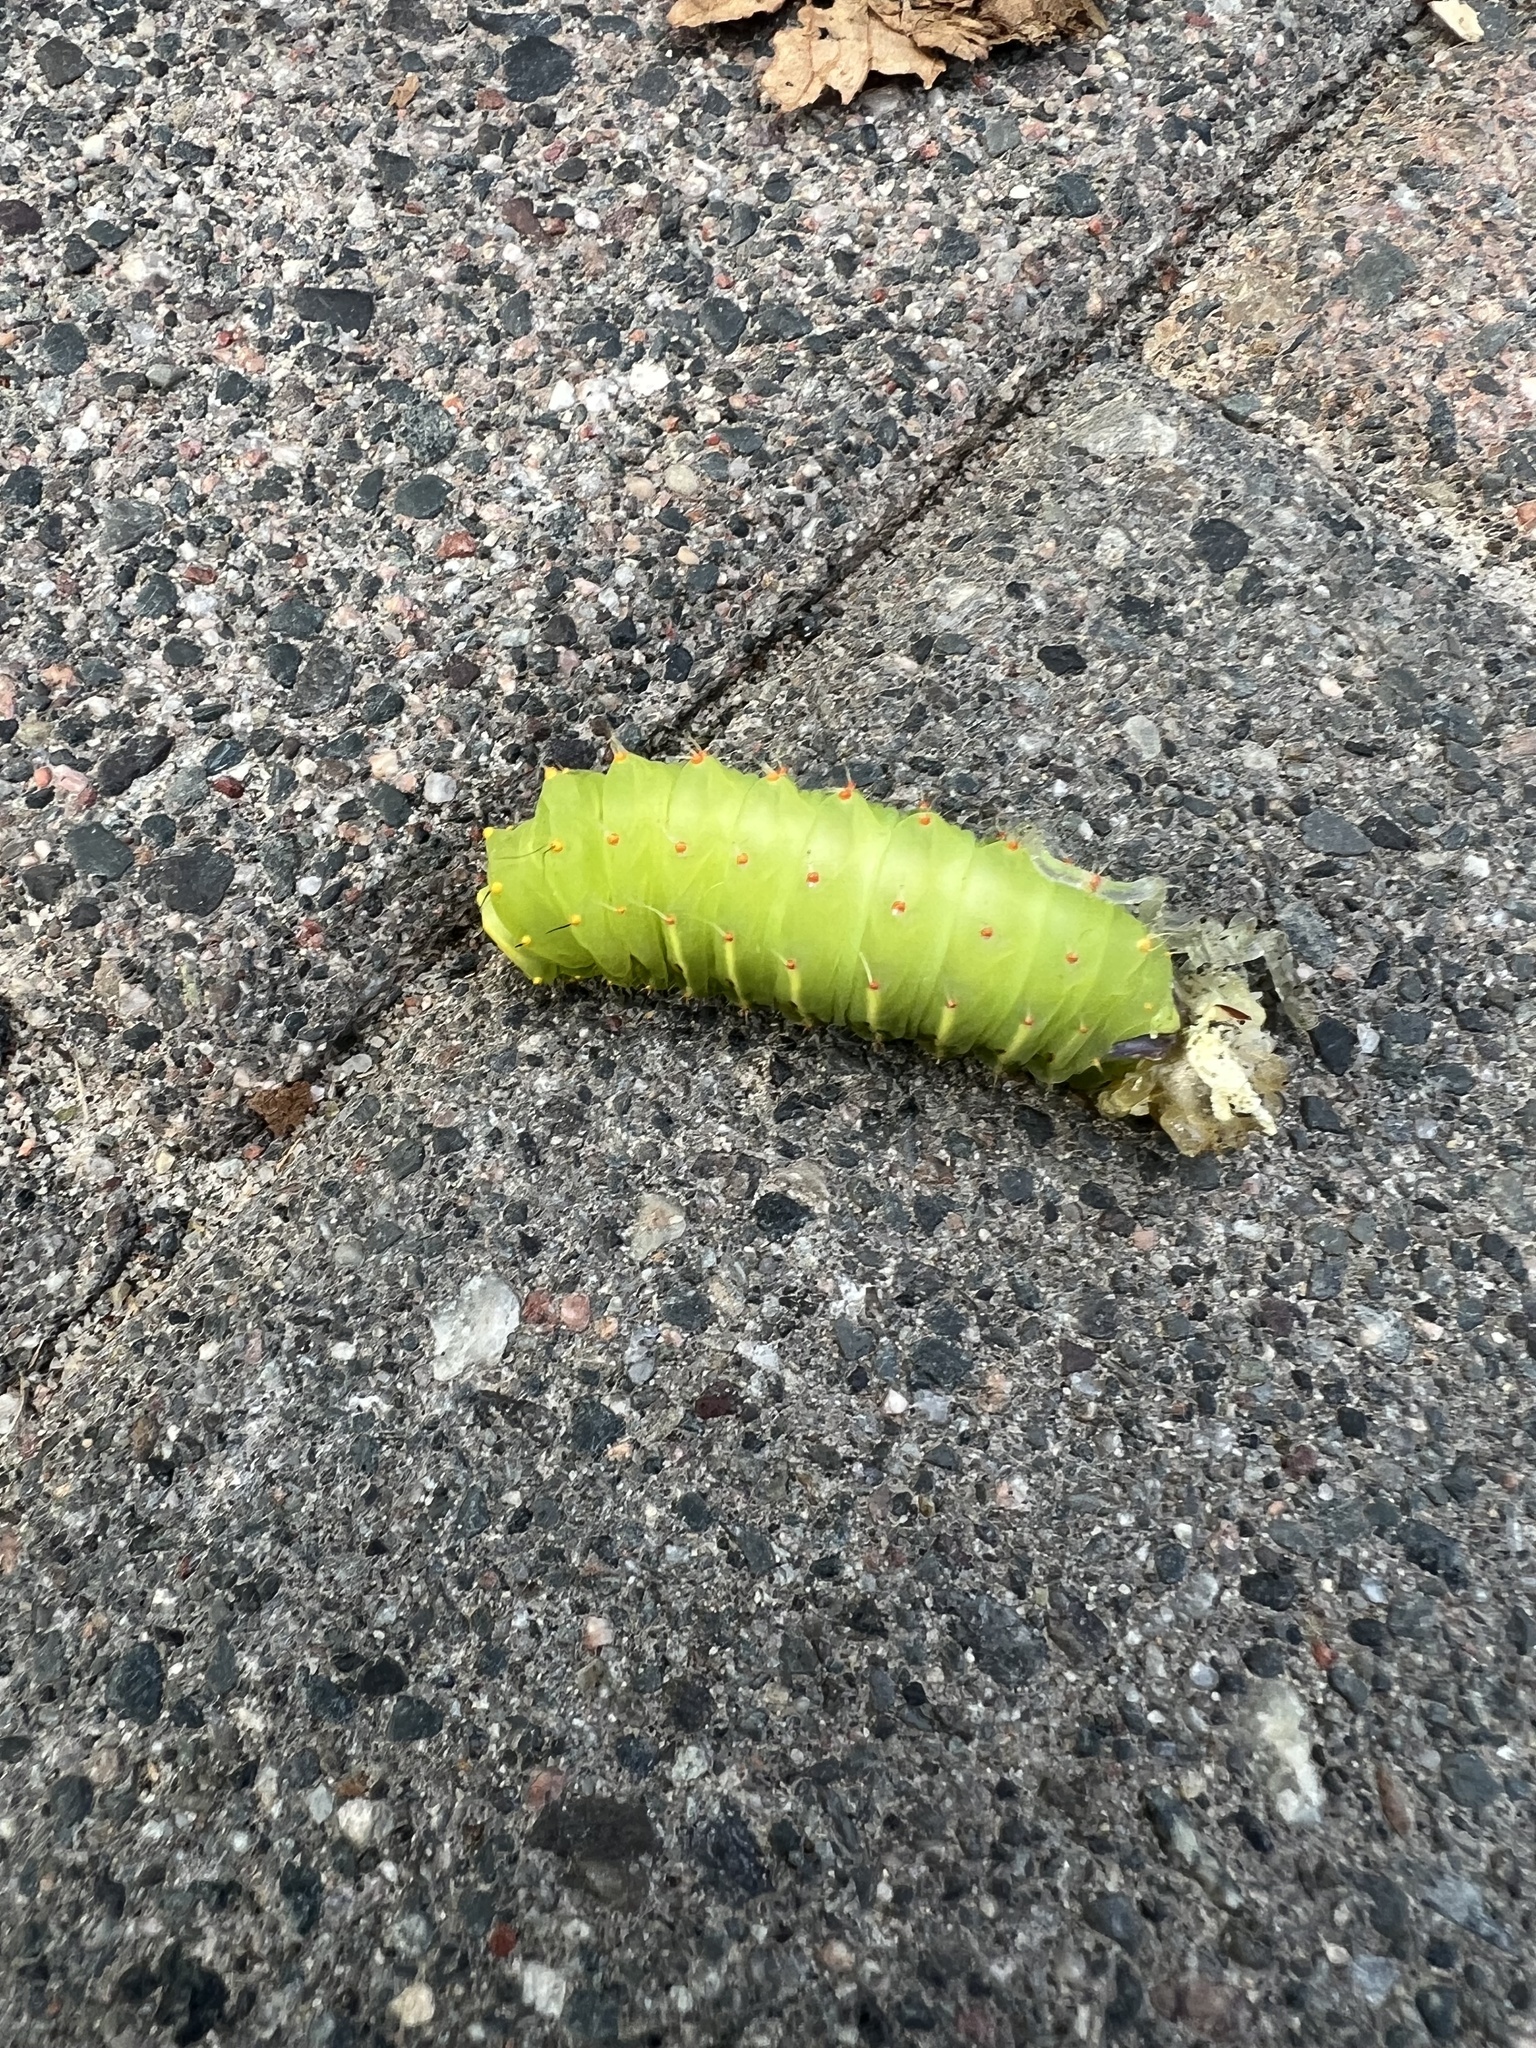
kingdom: Animalia
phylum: Arthropoda
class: Insecta
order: Lepidoptera
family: Saturniidae
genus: Antheraea
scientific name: Antheraea polyphemus
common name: Polyphemus moth
